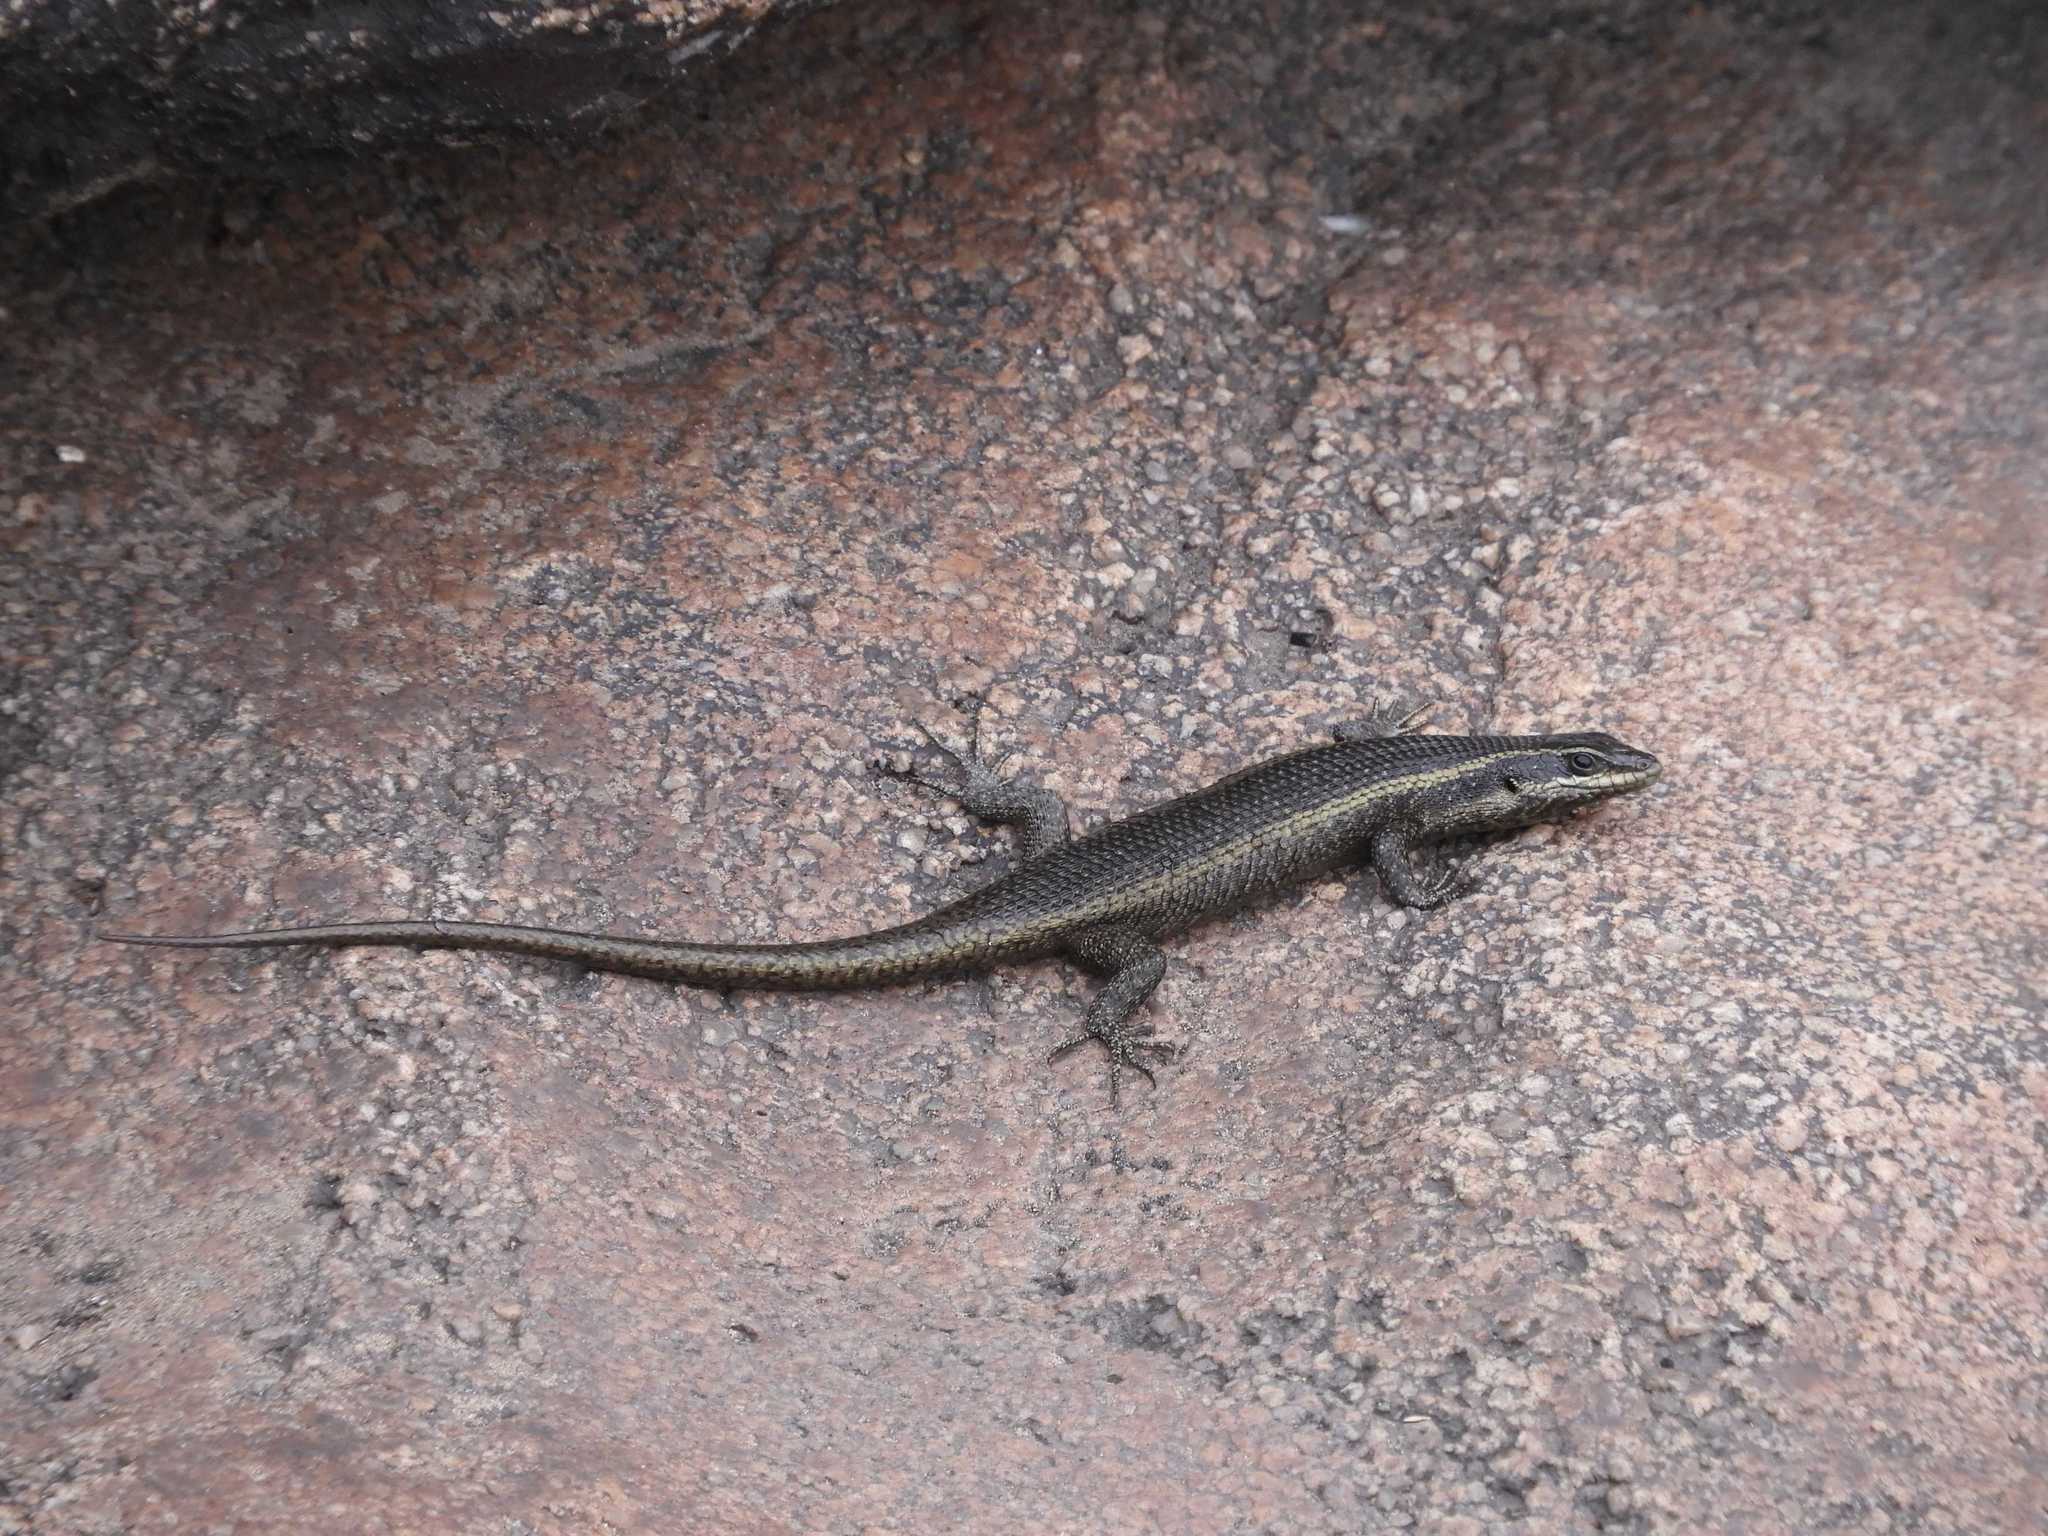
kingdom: Animalia
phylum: Chordata
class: Squamata
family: Scincidae
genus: Trachylepis
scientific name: Trachylepis punctatissima
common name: Montane speckled skink
